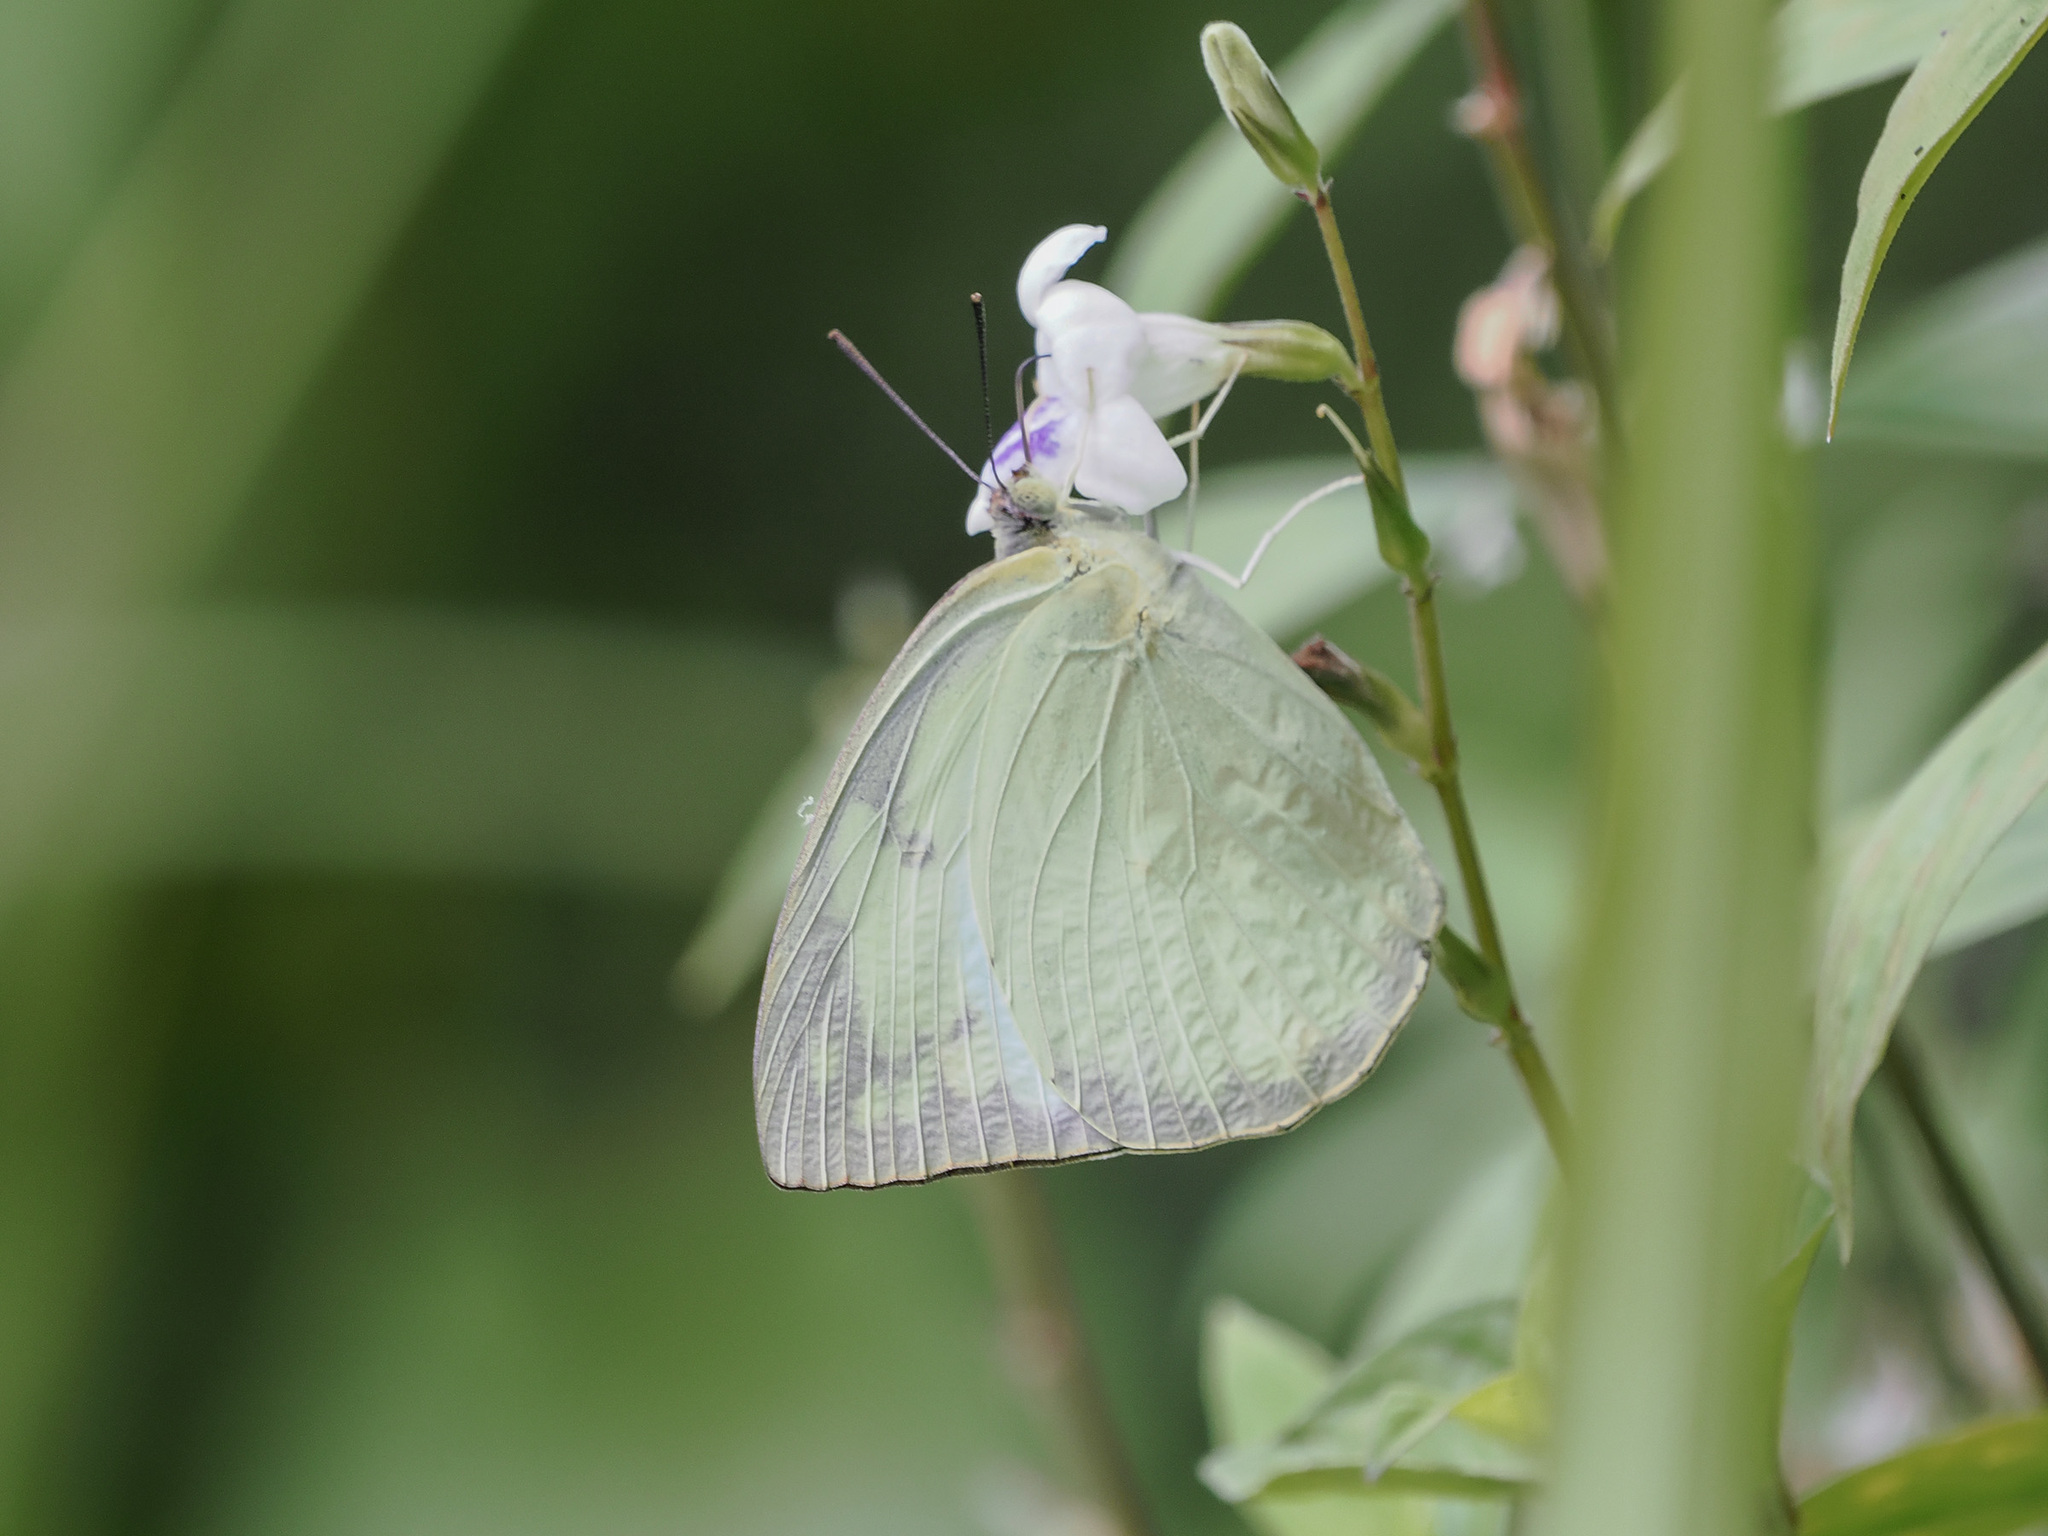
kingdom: Animalia
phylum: Arthropoda
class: Insecta
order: Lepidoptera
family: Pieridae
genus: Catopsilia
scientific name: Catopsilia pomona
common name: Common emigrant
